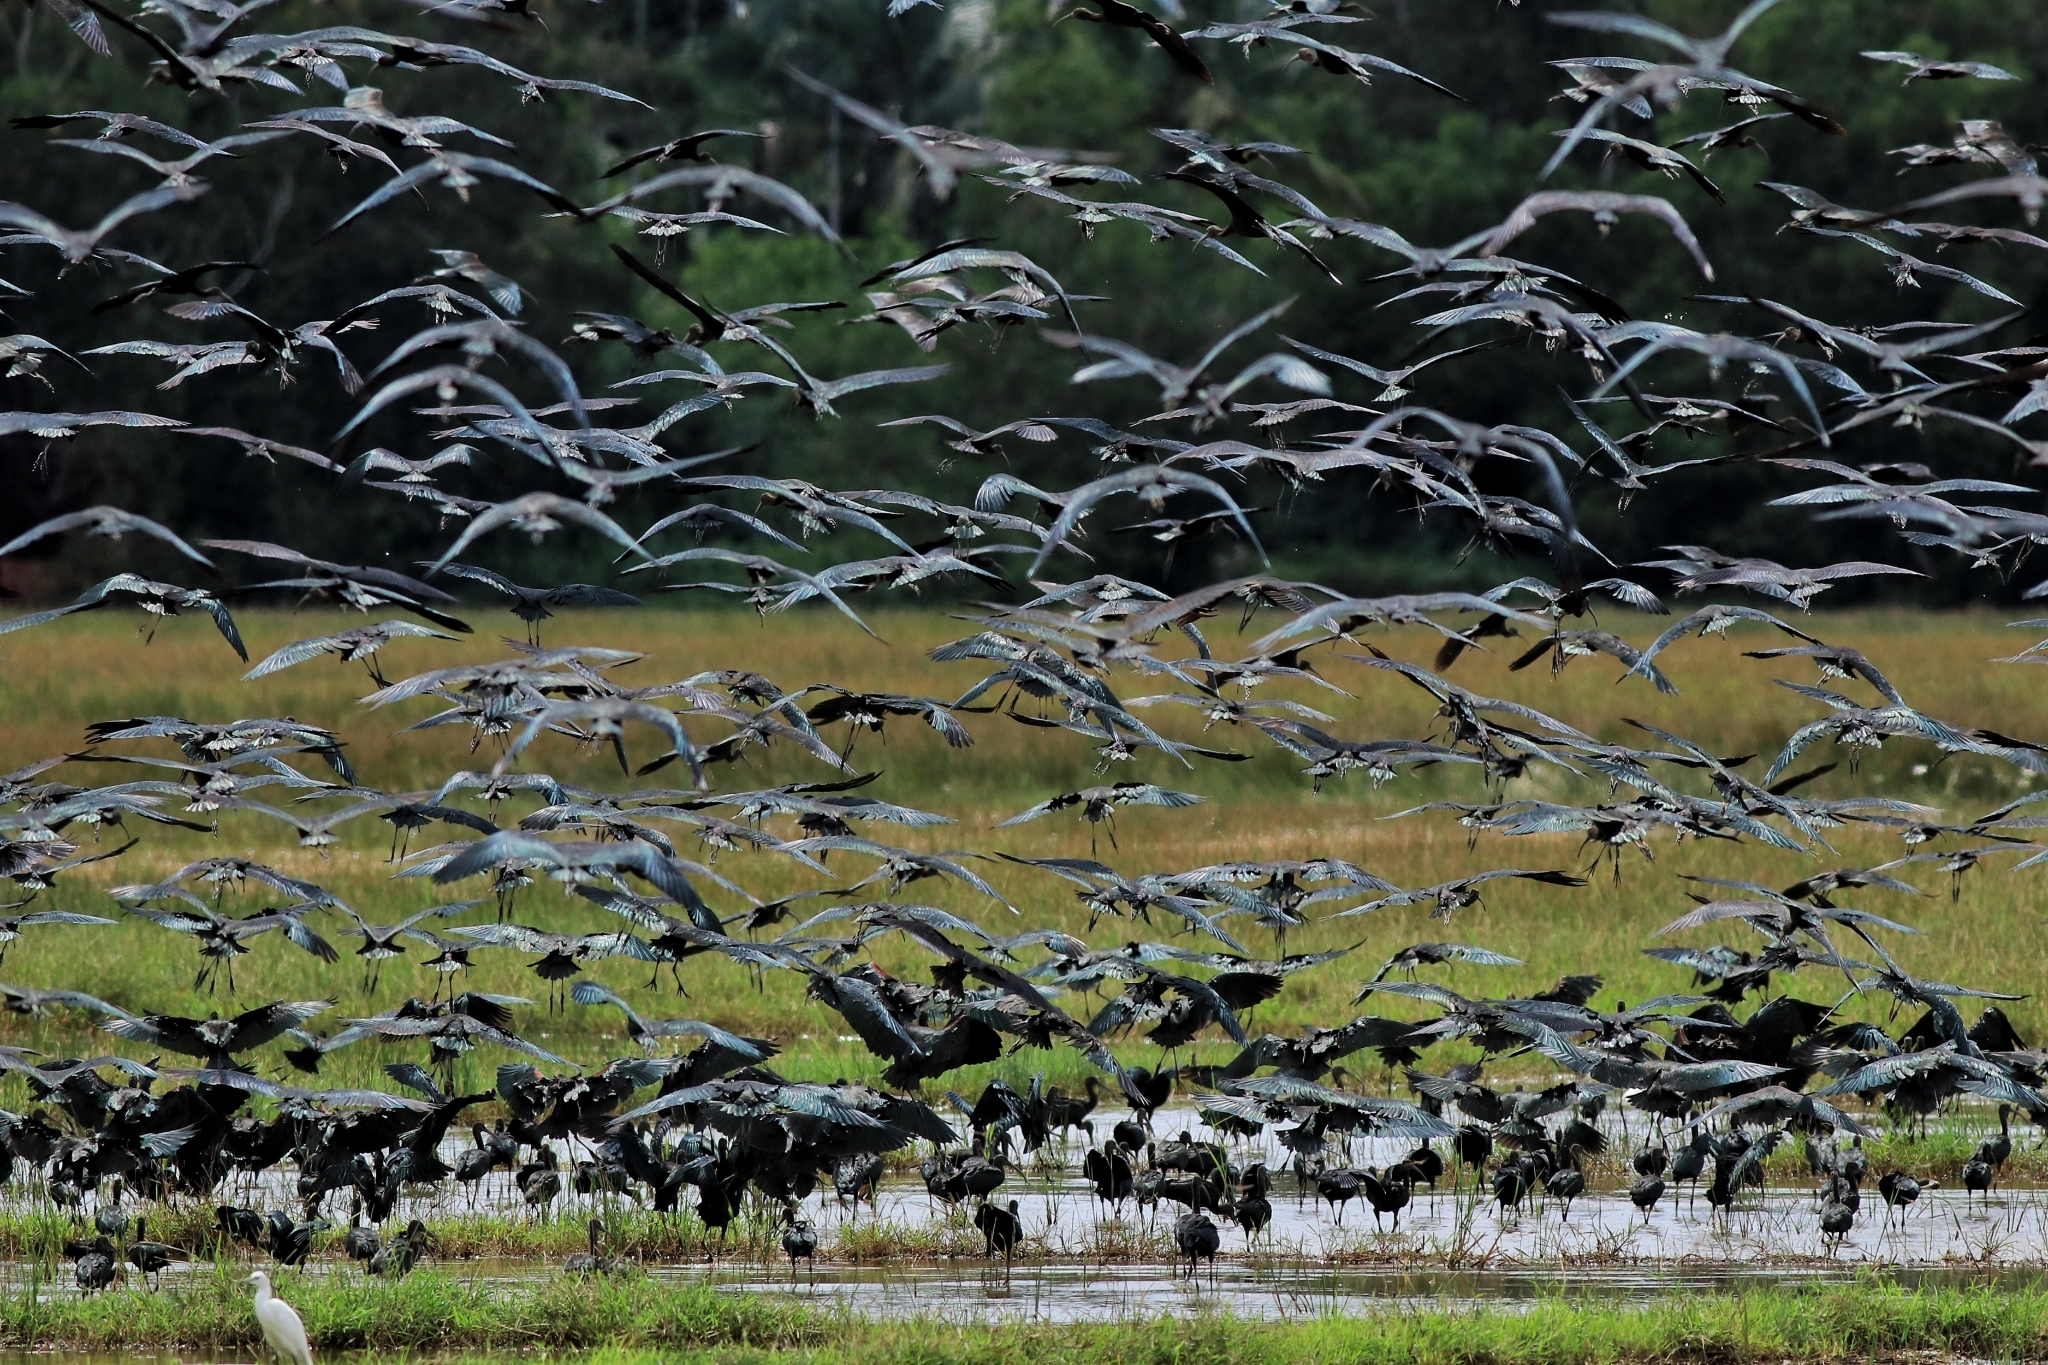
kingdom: Animalia
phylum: Chordata
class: Aves
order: Pelecaniformes
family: Threskiornithidae
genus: Plegadis
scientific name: Plegadis falcinellus
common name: Glossy ibis
